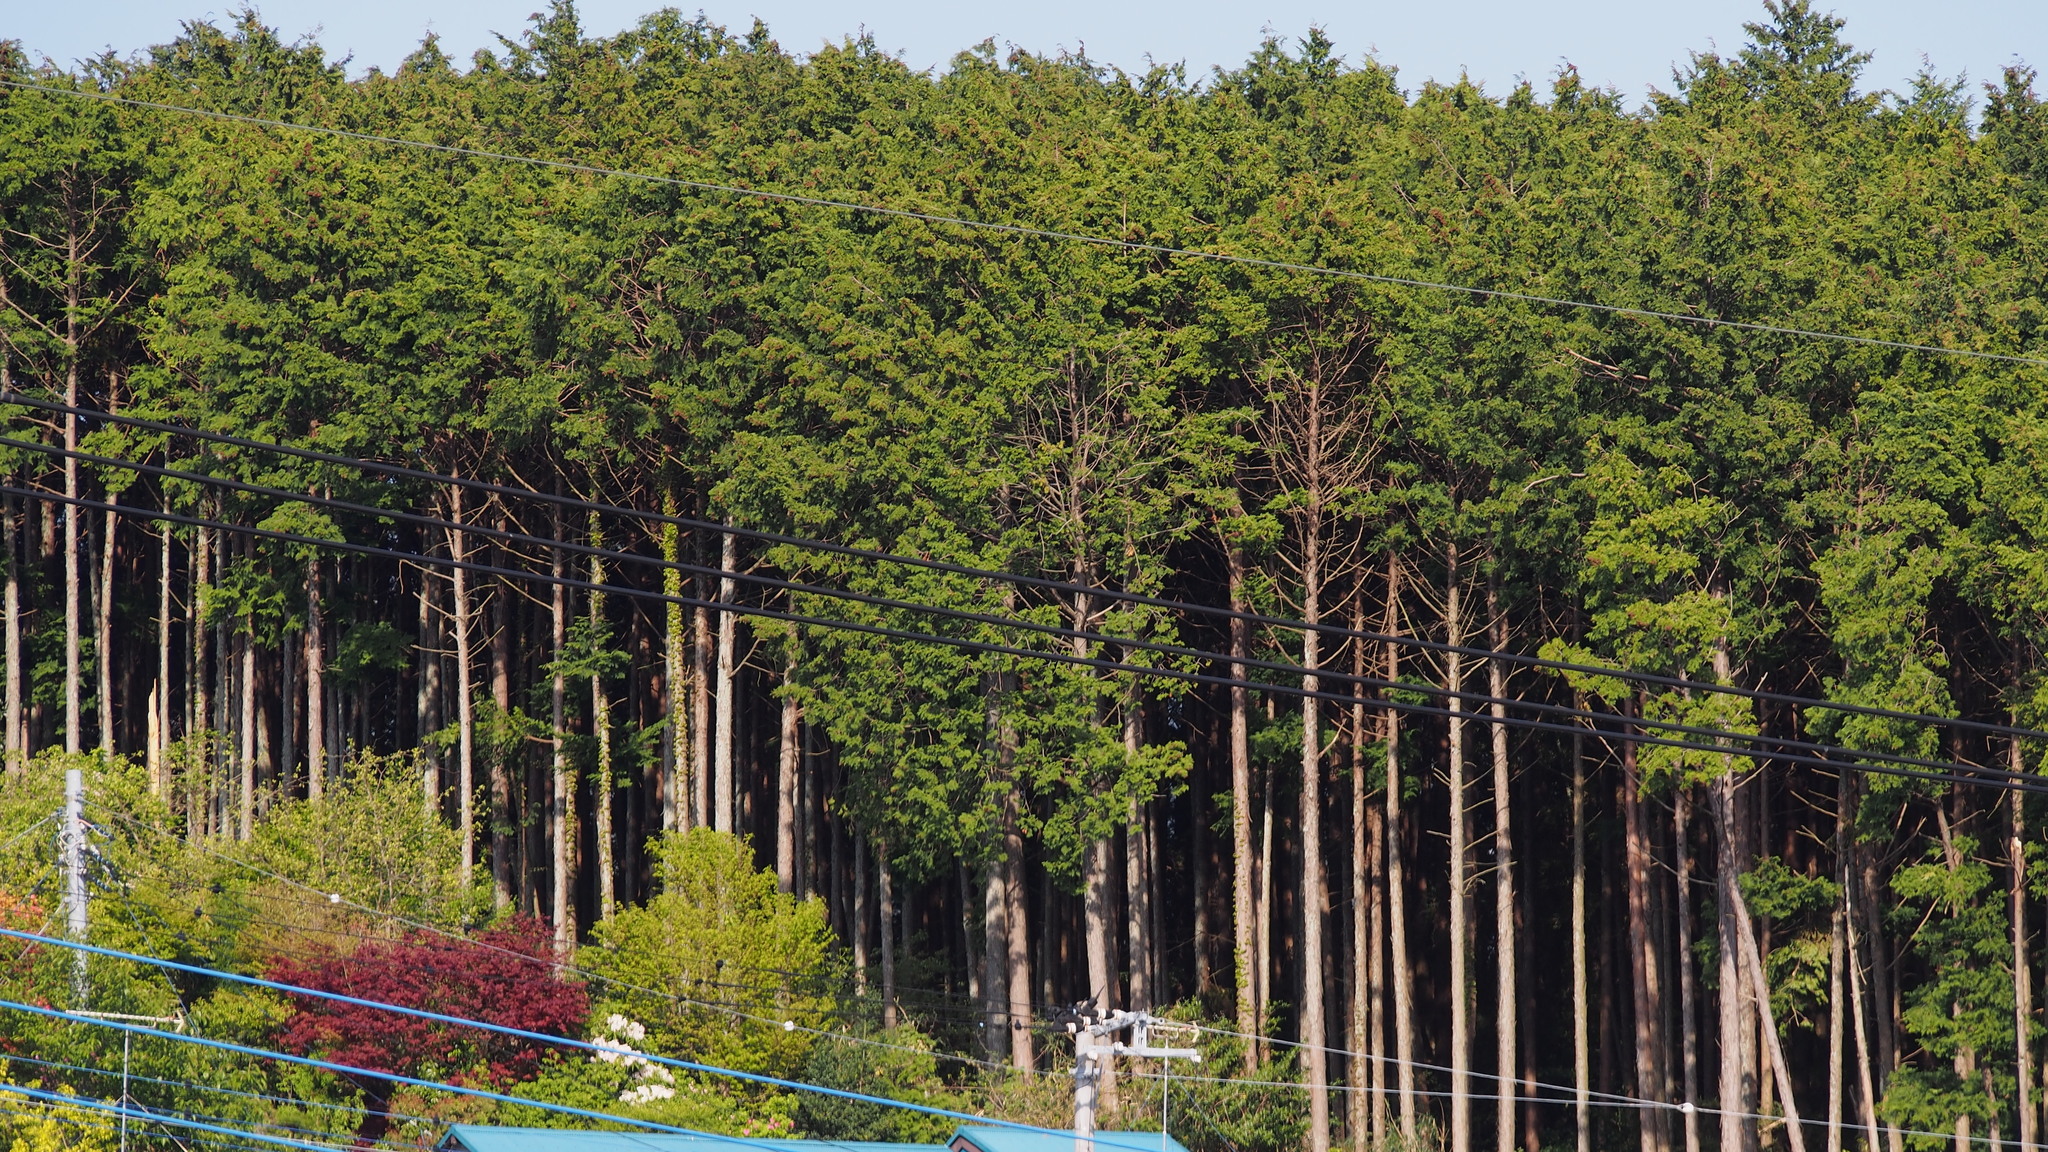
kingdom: Plantae
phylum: Tracheophyta
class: Pinopsida
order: Pinales
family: Cupressaceae
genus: Chamaecyparis
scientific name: Chamaecyparis obtusa
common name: Hinoki false cypress
